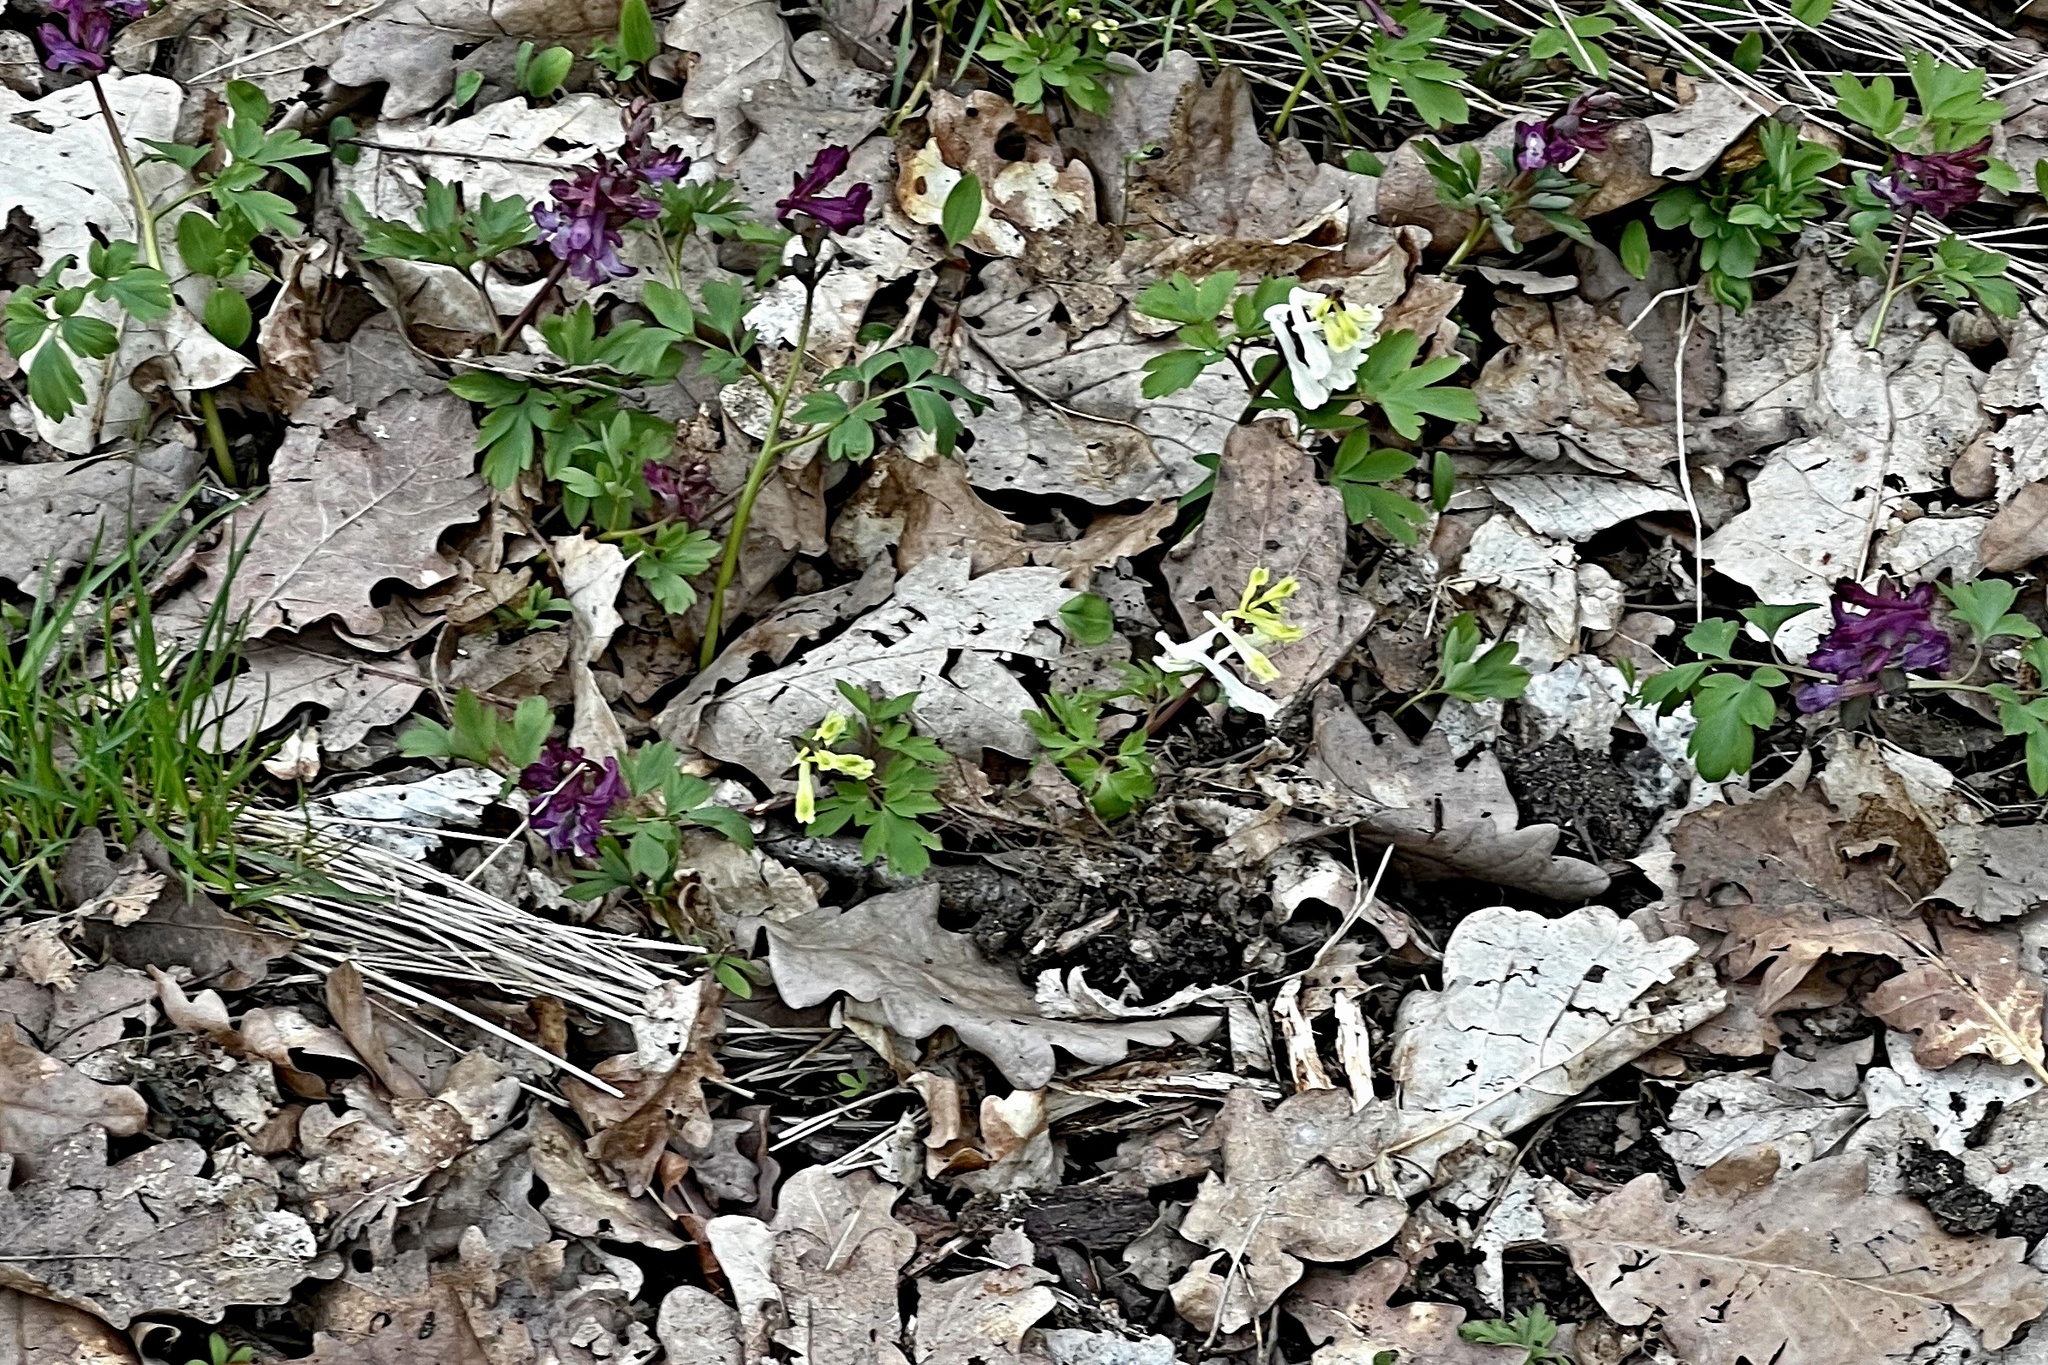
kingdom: Plantae
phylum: Tracheophyta
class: Magnoliopsida
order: Ranunculales
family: Papaveraceae
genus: Corydalis
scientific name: Corydalis cava
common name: Hollowroot
